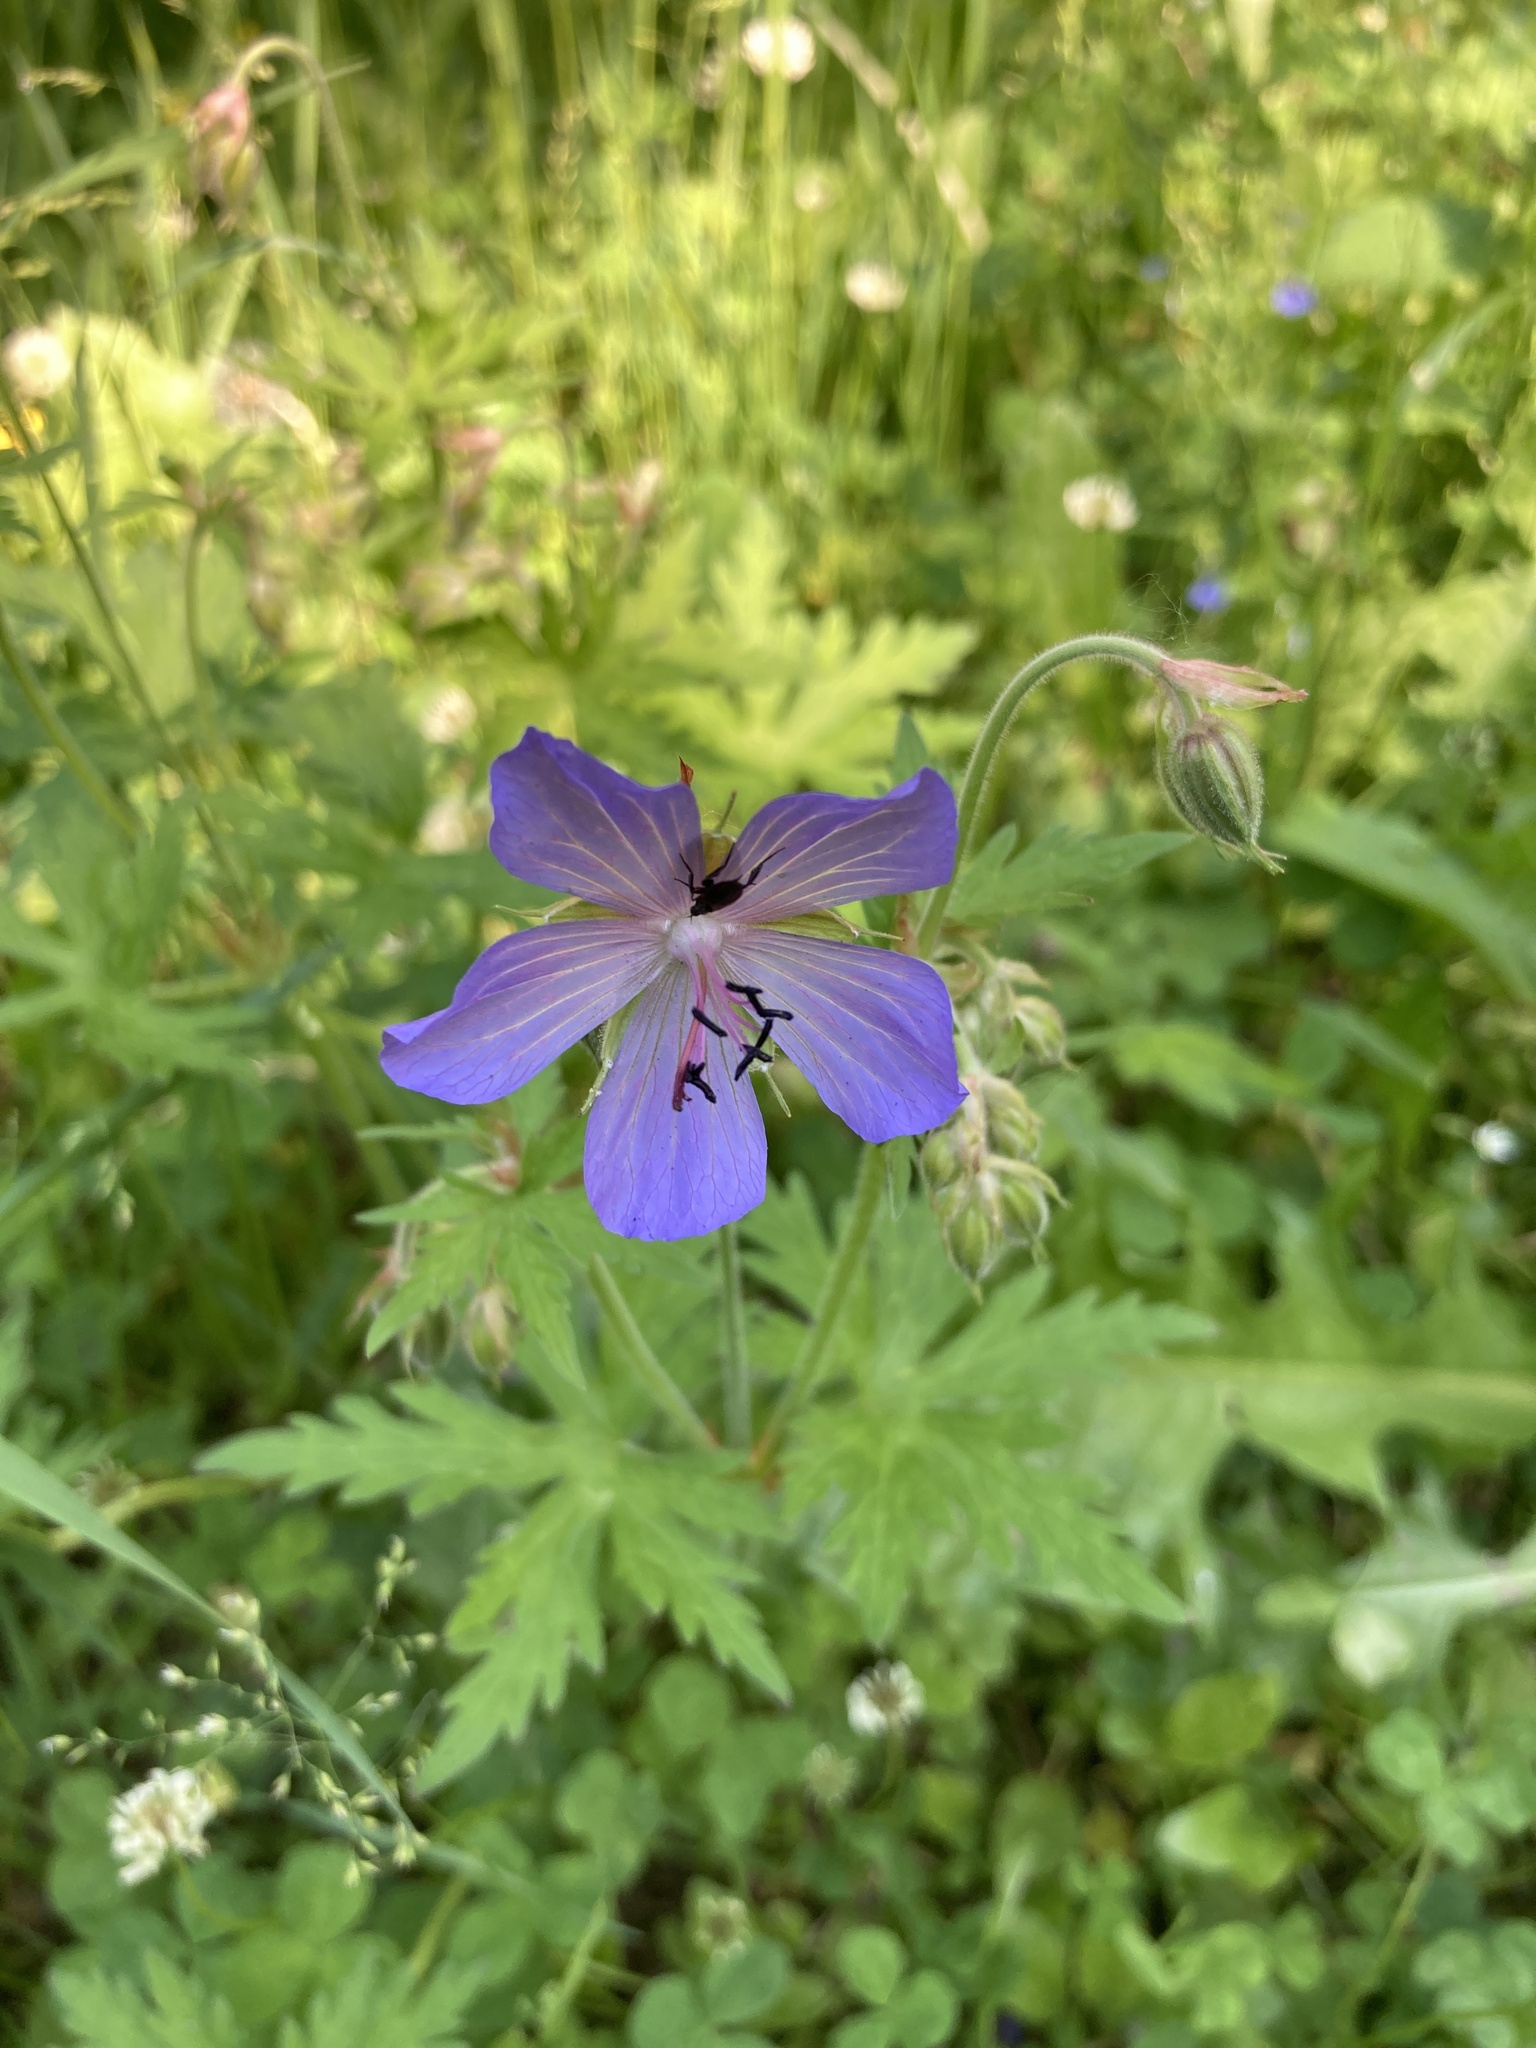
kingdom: Plantae
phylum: Tracheophyta
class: Magnoliopsida
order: Geraniales
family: Geraniaceae
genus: Geranium
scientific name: Geranium pratense
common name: Meadow crane's-bill
